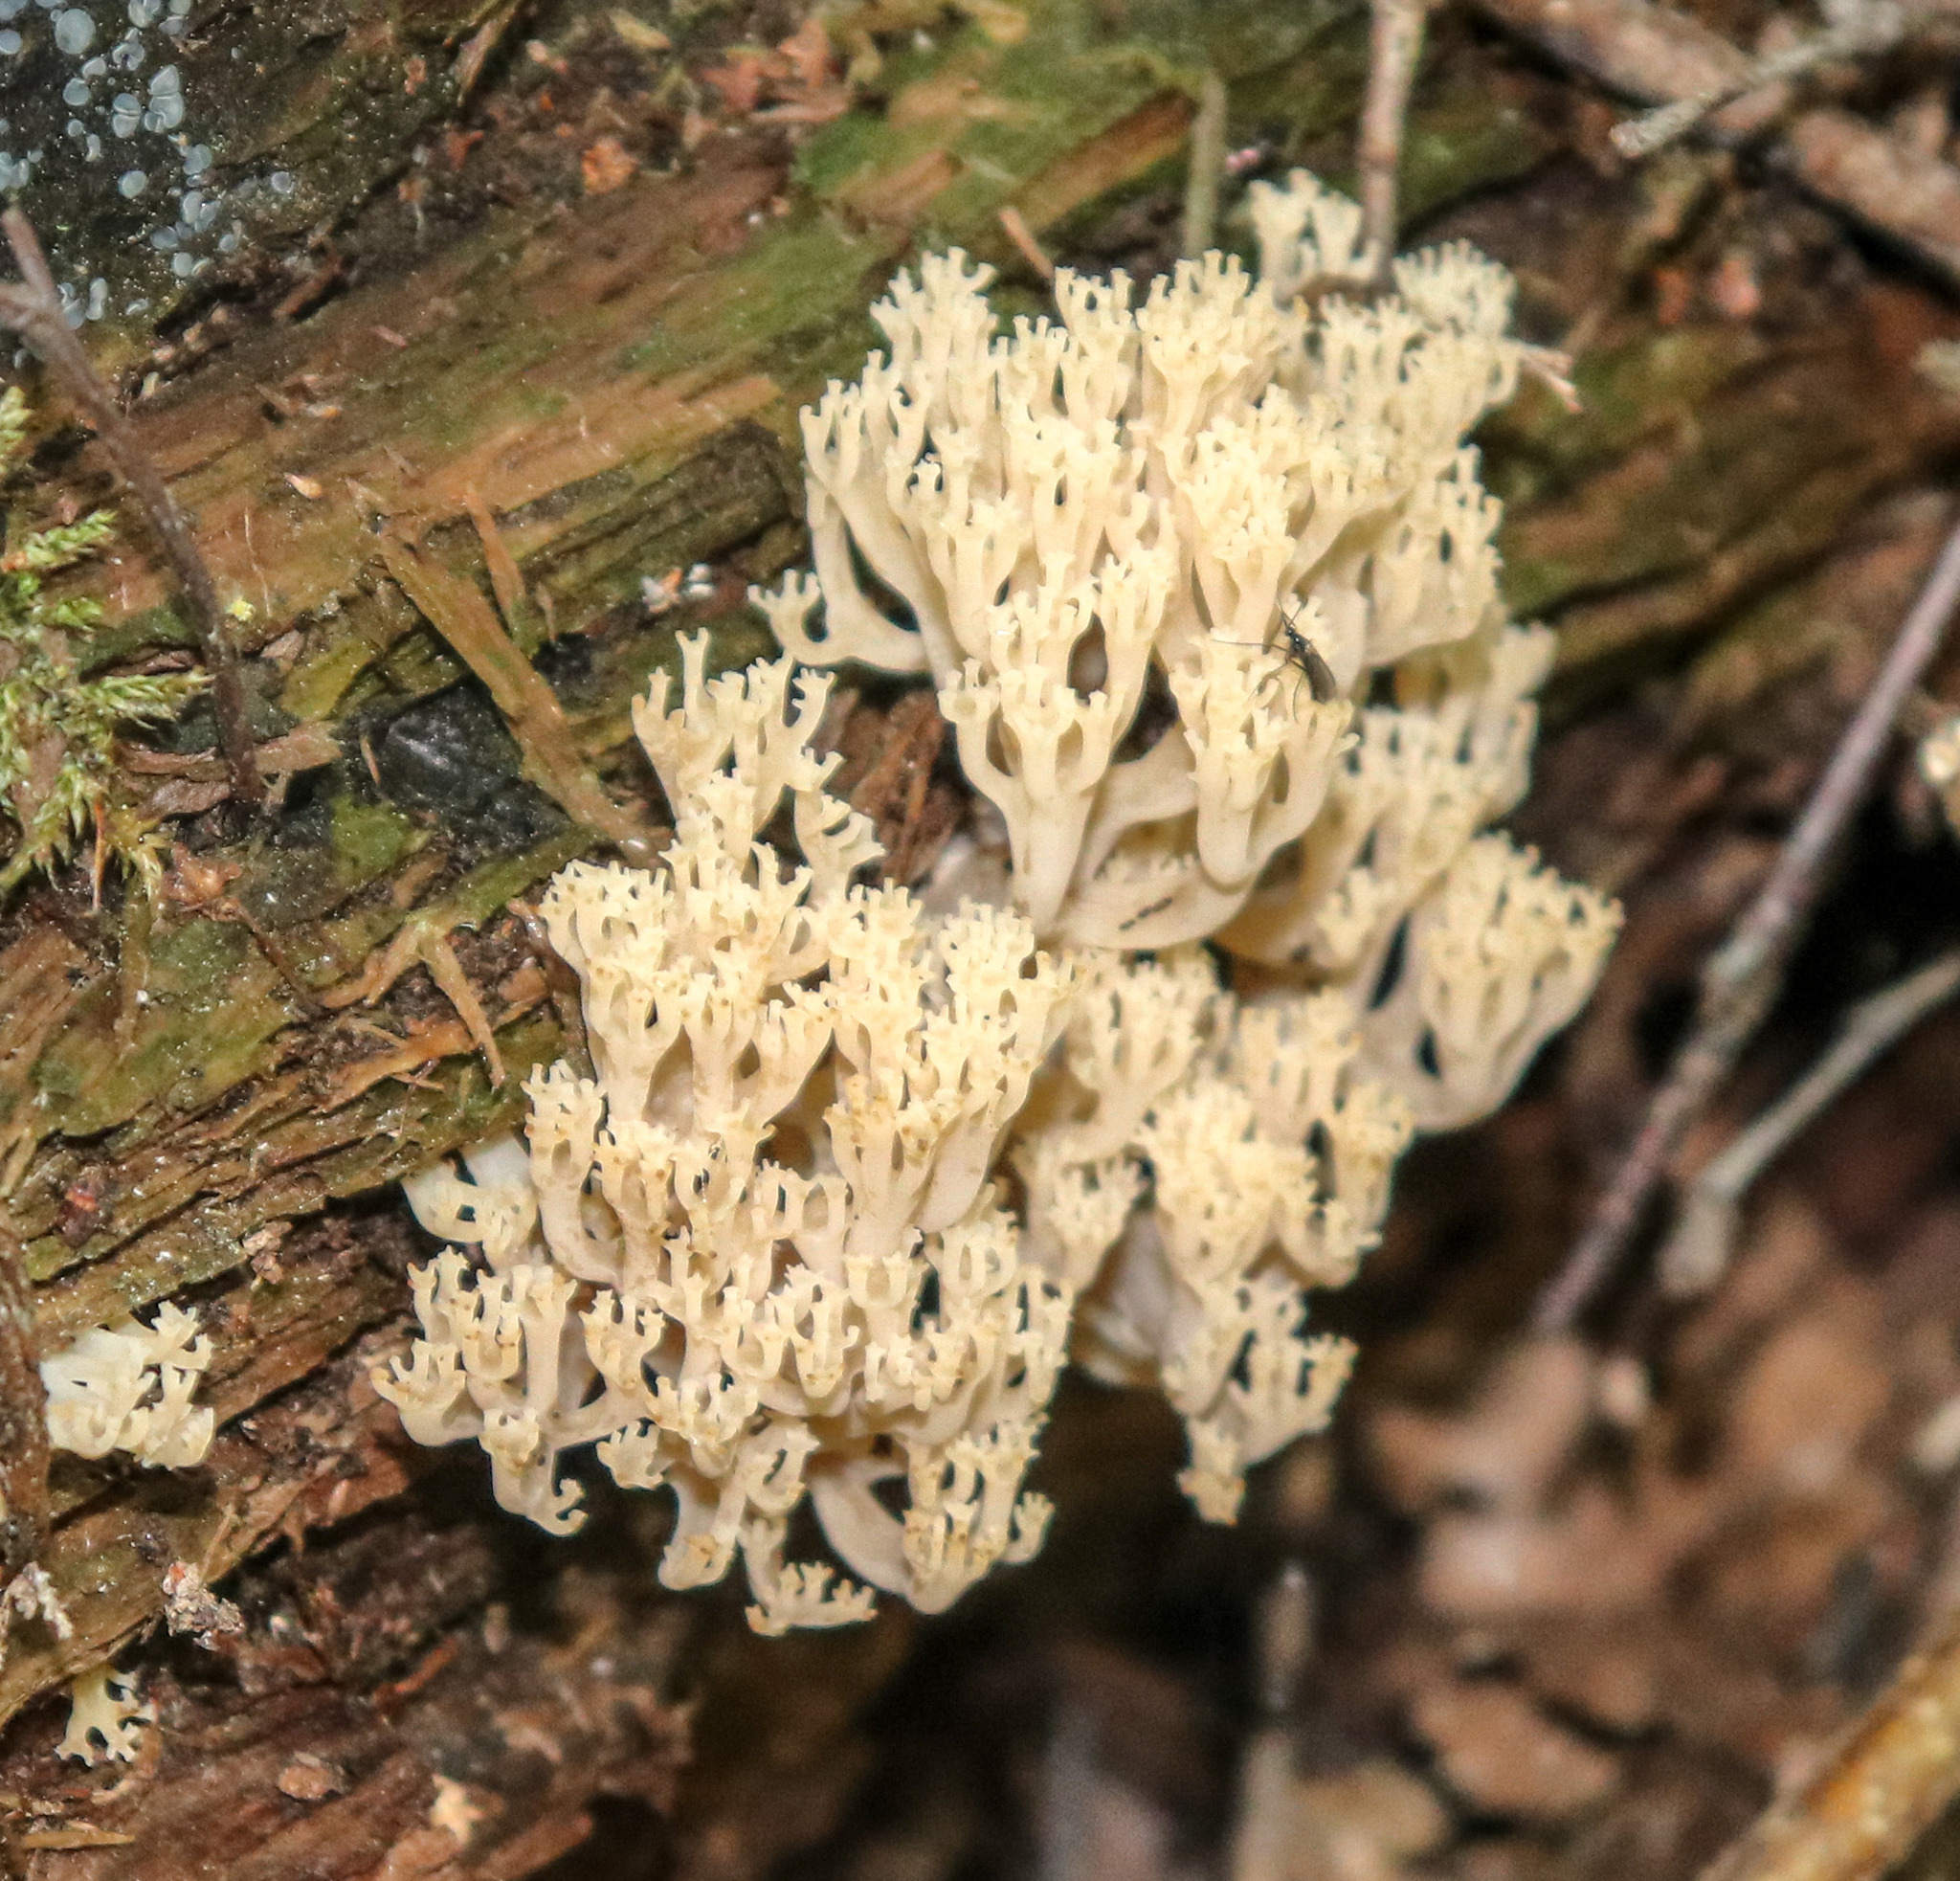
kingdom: Fungi
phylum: Basidiomycota
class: Agaricomycetes
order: Russulales
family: Auriscalpiaceae
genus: Artomyces
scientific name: Artomyces pyxidatus
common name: Crown-tipped coral fungus
